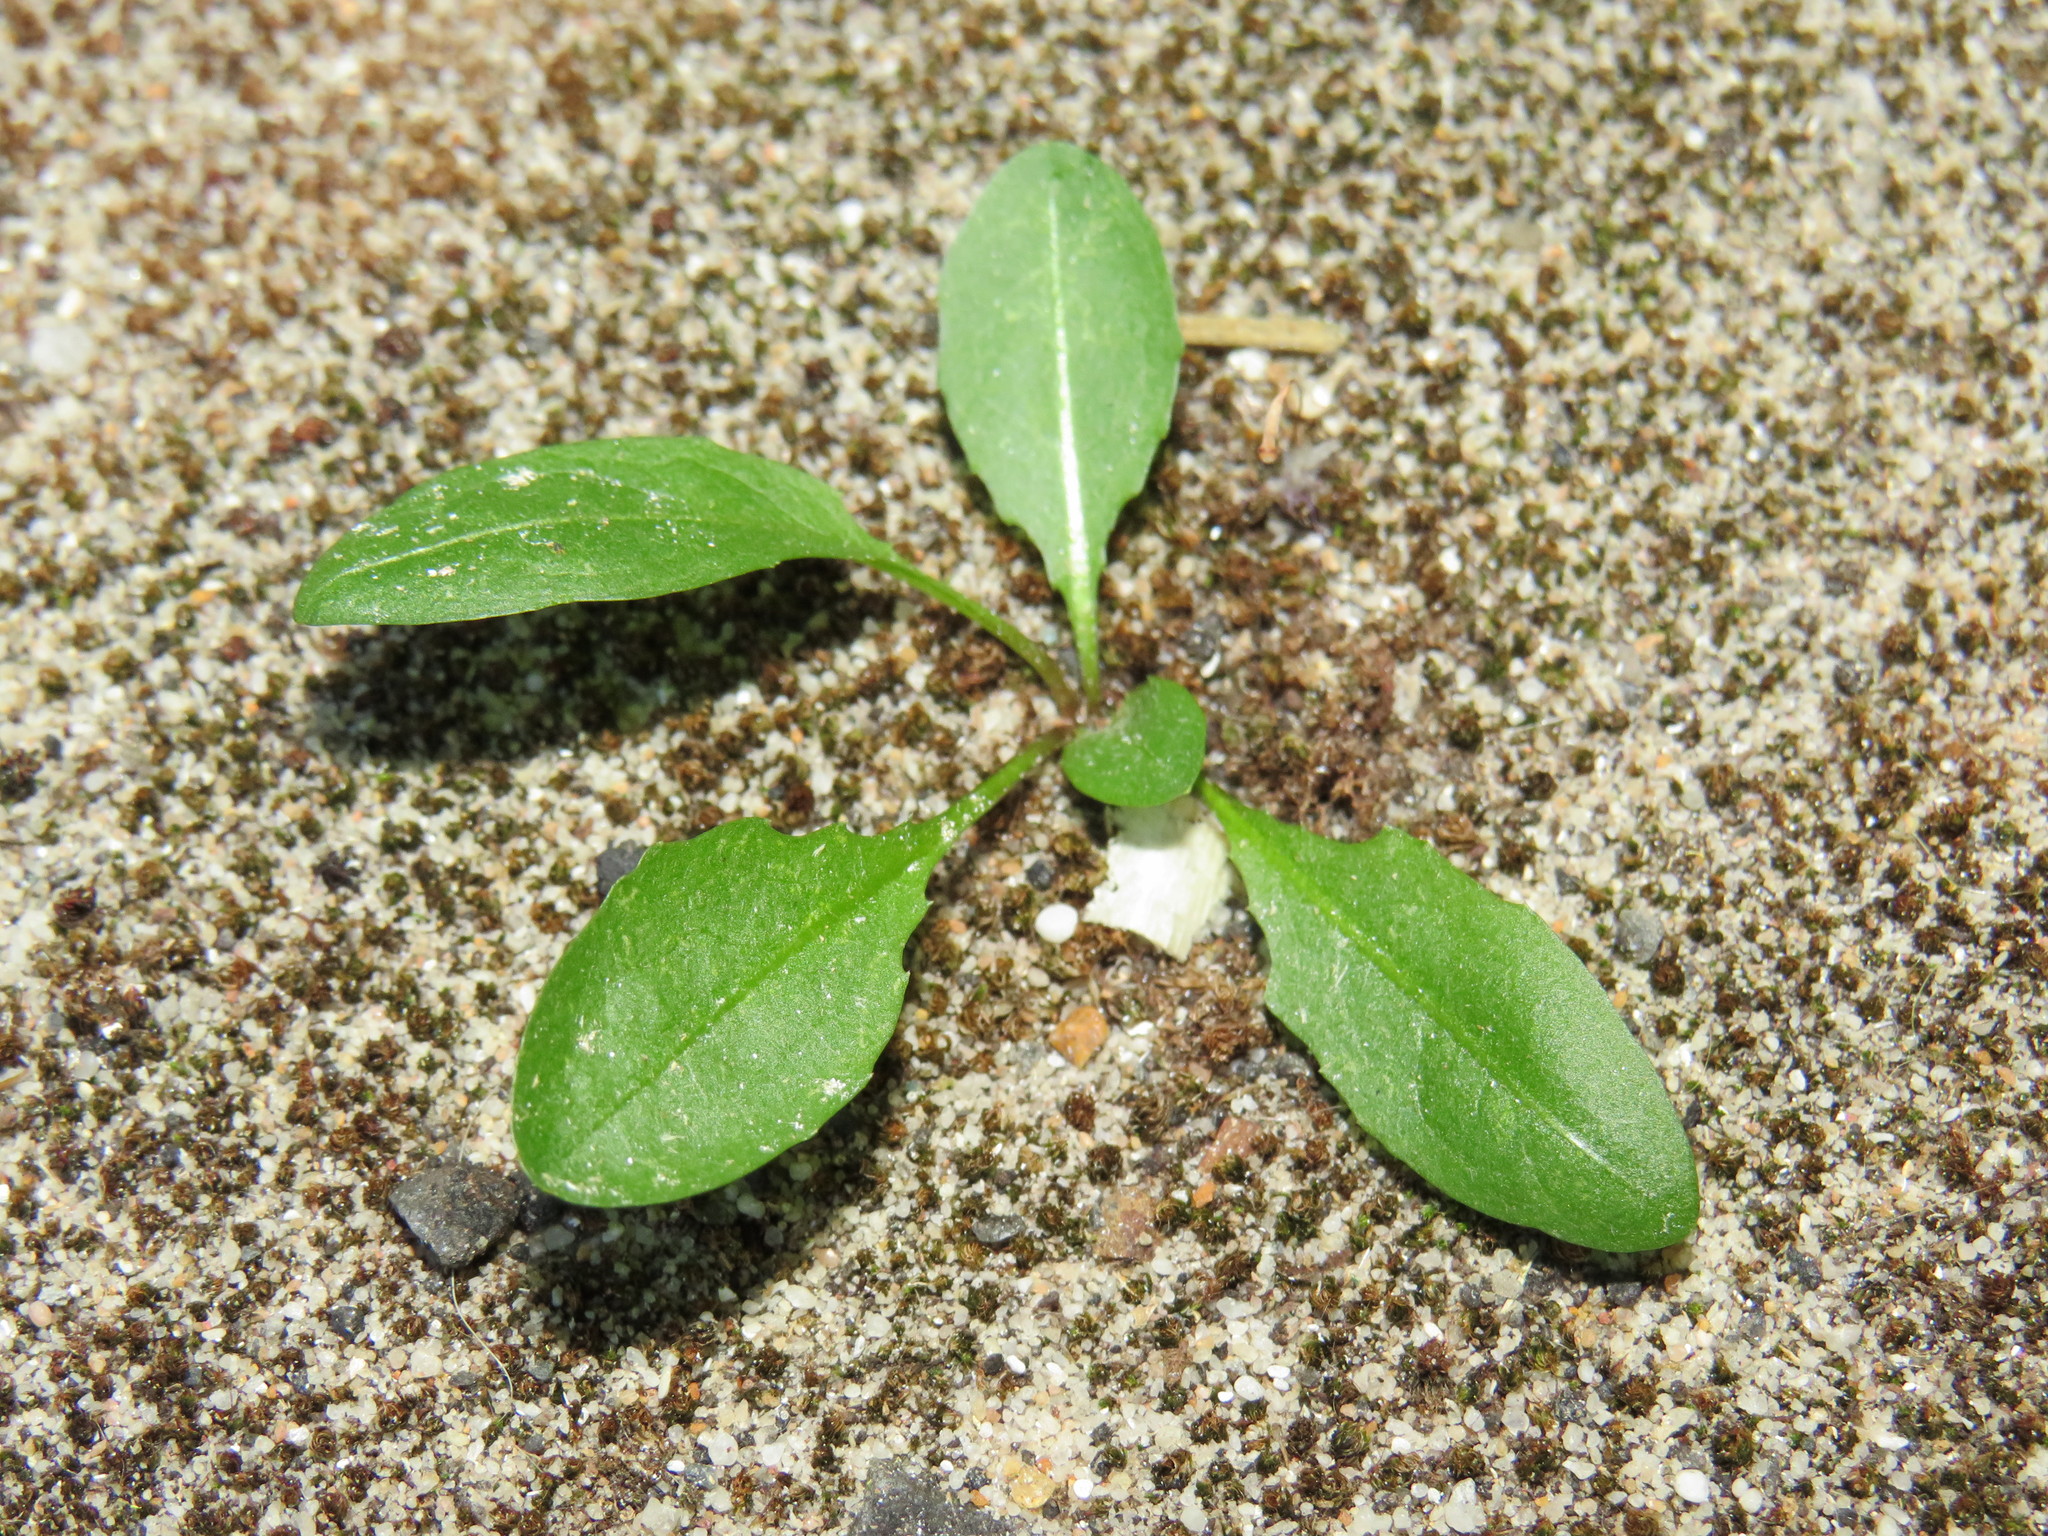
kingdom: Plantae
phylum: Tracheophyta
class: Magnoliopsida
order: Asterales
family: Asteraceae
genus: Taraxacum
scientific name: Taraxacum officinale
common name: Common dandelion
